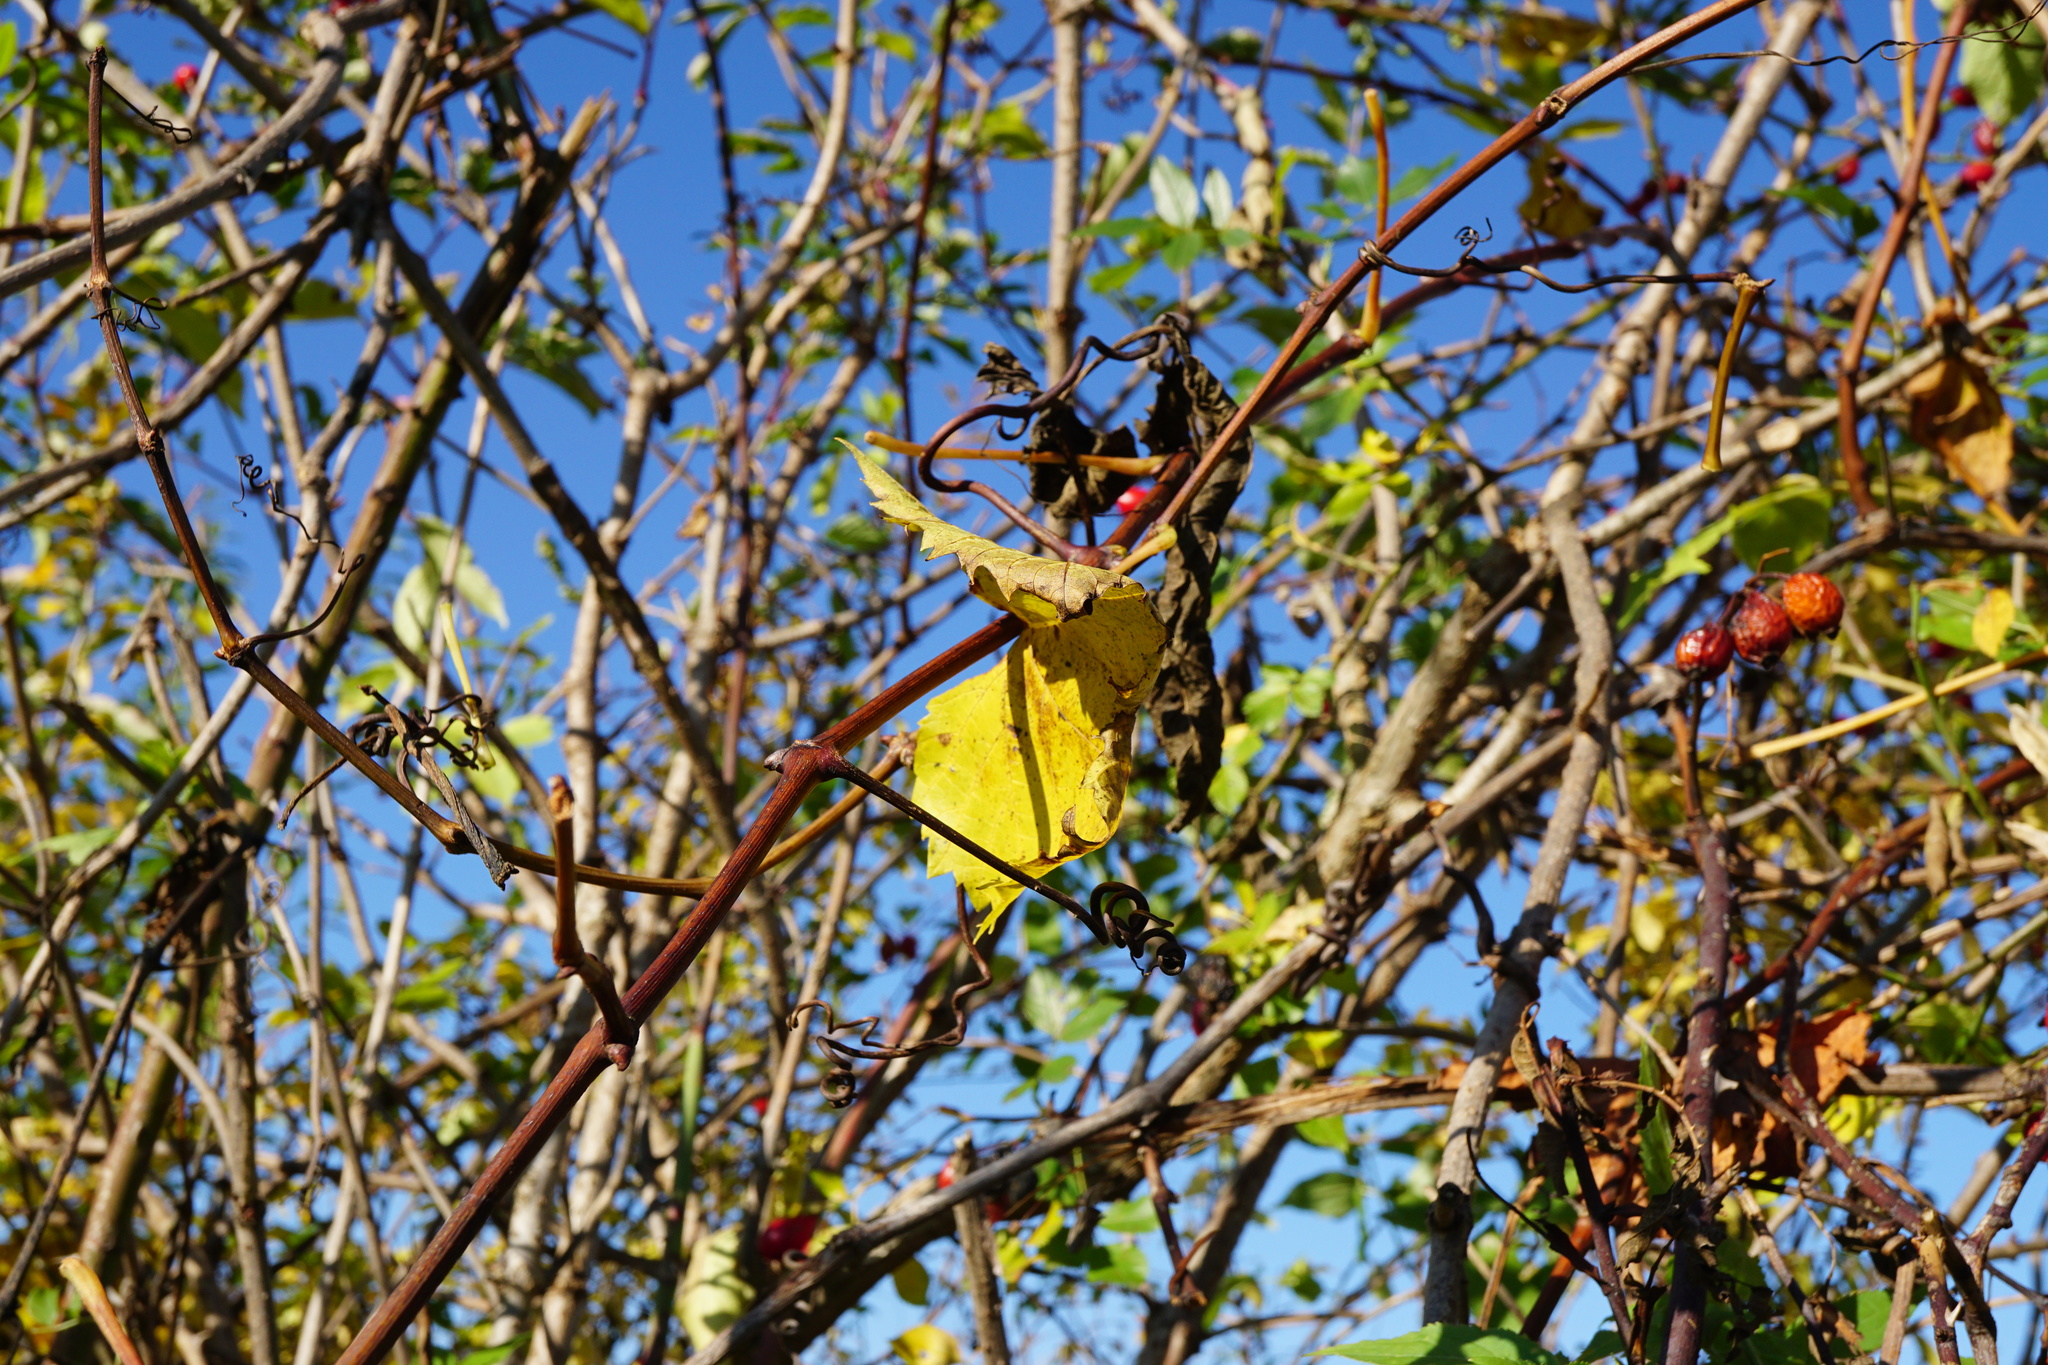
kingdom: Plantae
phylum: Tracheophyta
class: Magnoliopsida
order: Vitales
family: Vitaceae
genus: Vitis
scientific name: Vitis vinifera
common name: Grape-vine
